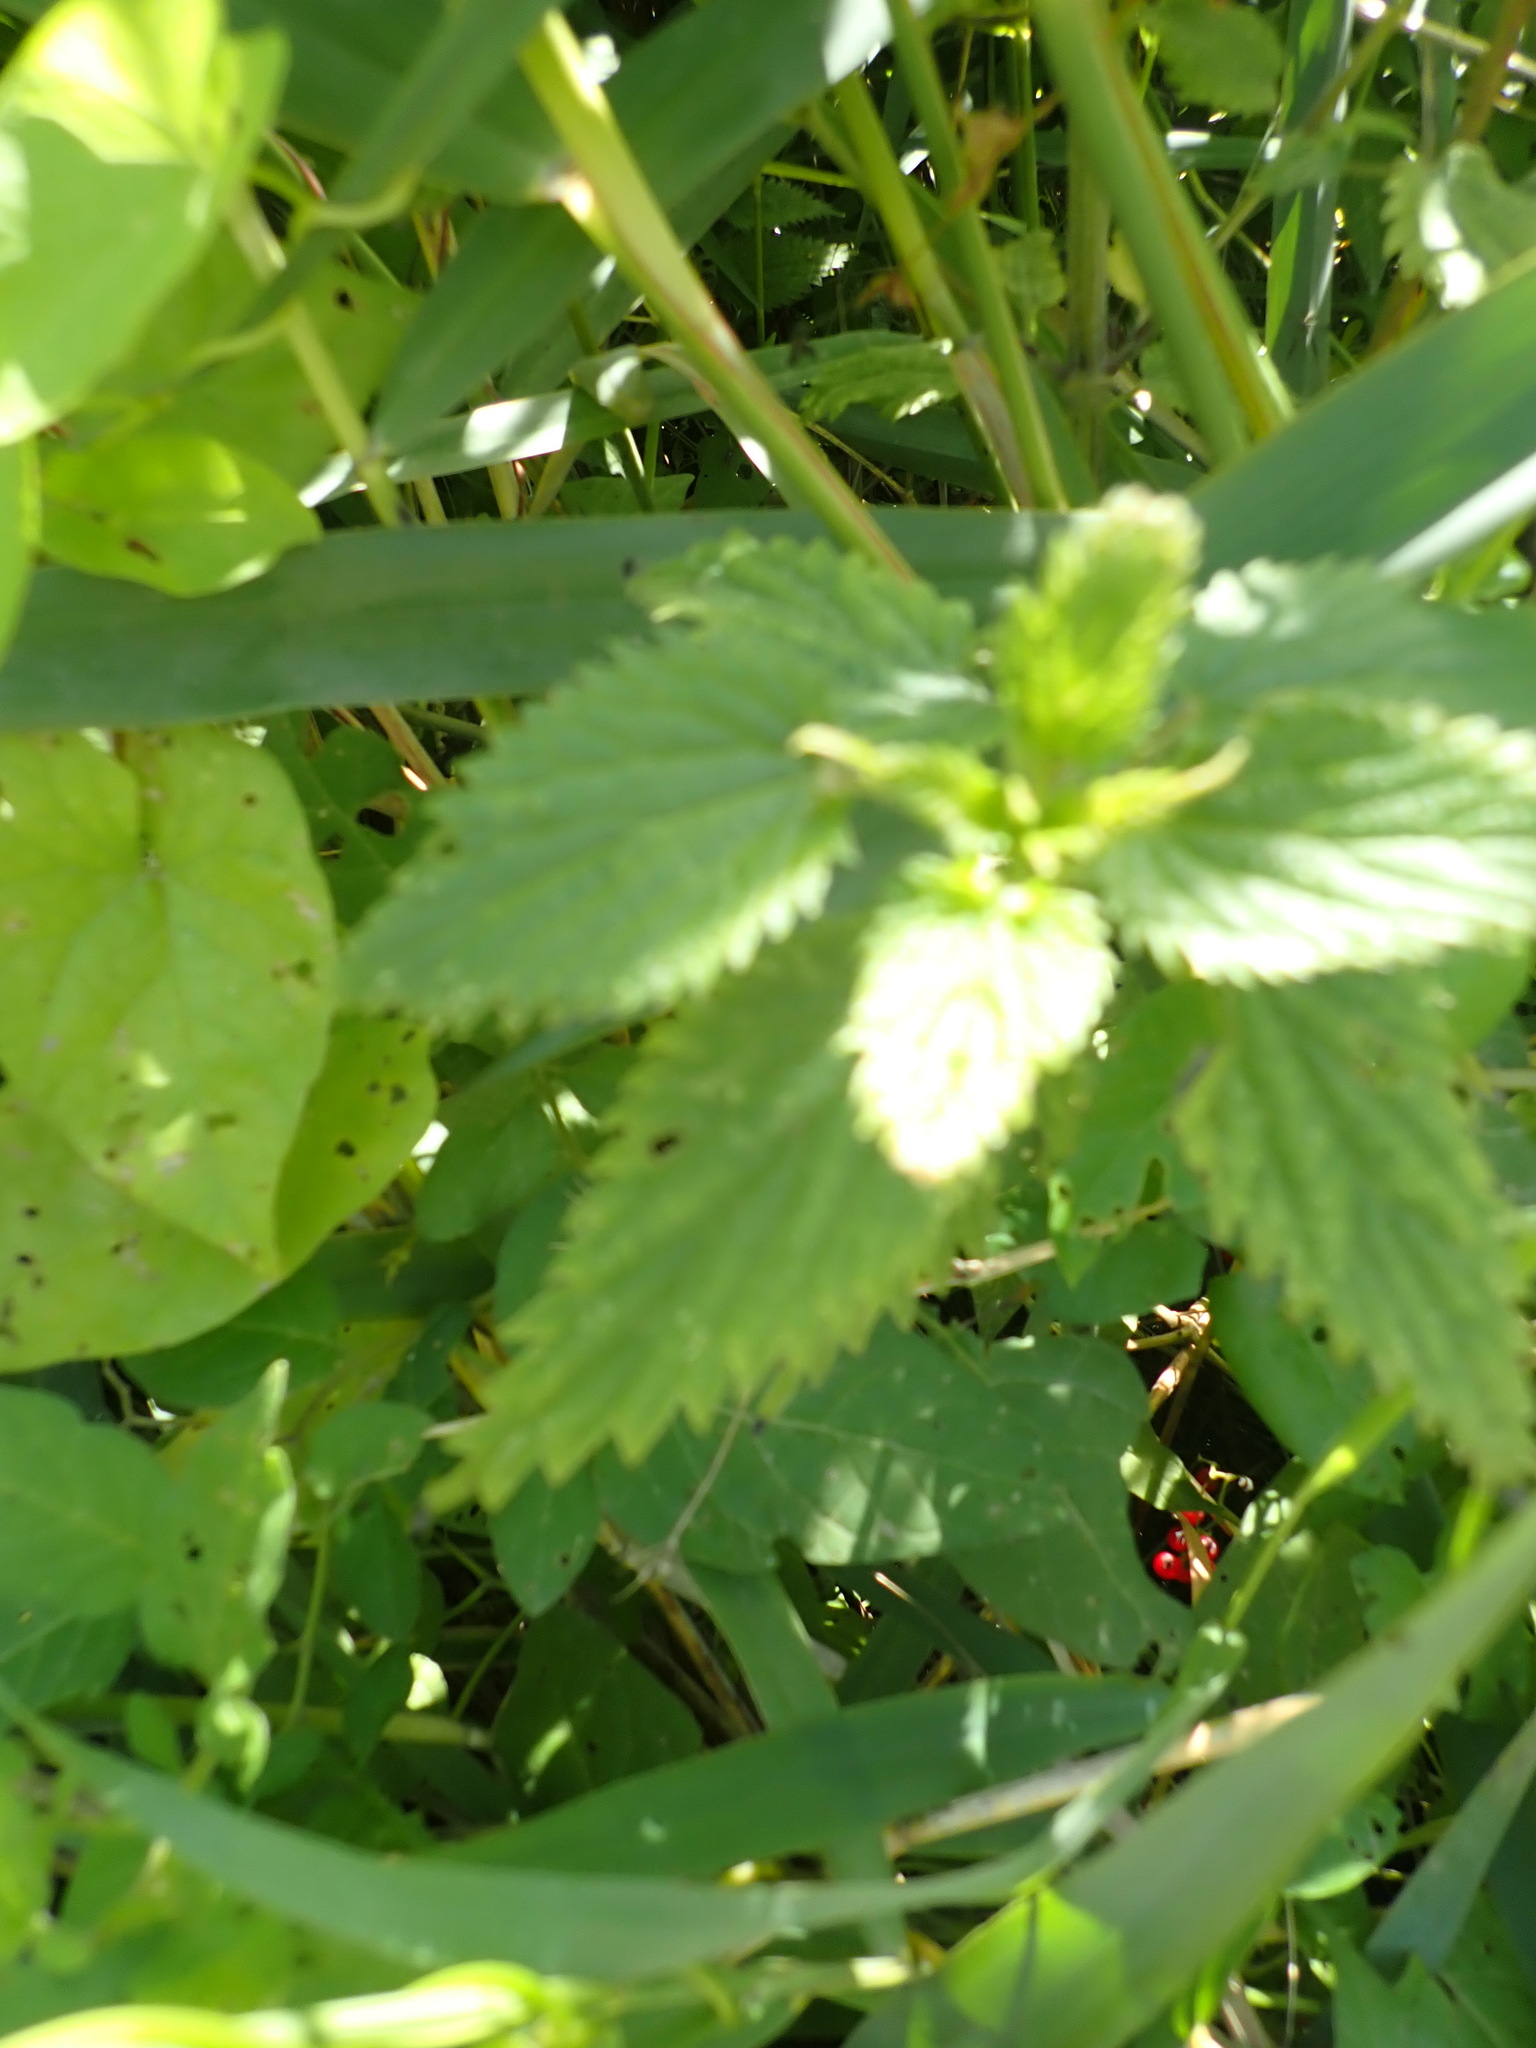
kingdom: Plantae
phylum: Tracheophyta
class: Magnoliopsida
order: Rosales
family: Urticaceae
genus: Urtica
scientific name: Urtica dioica
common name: Common nettle
